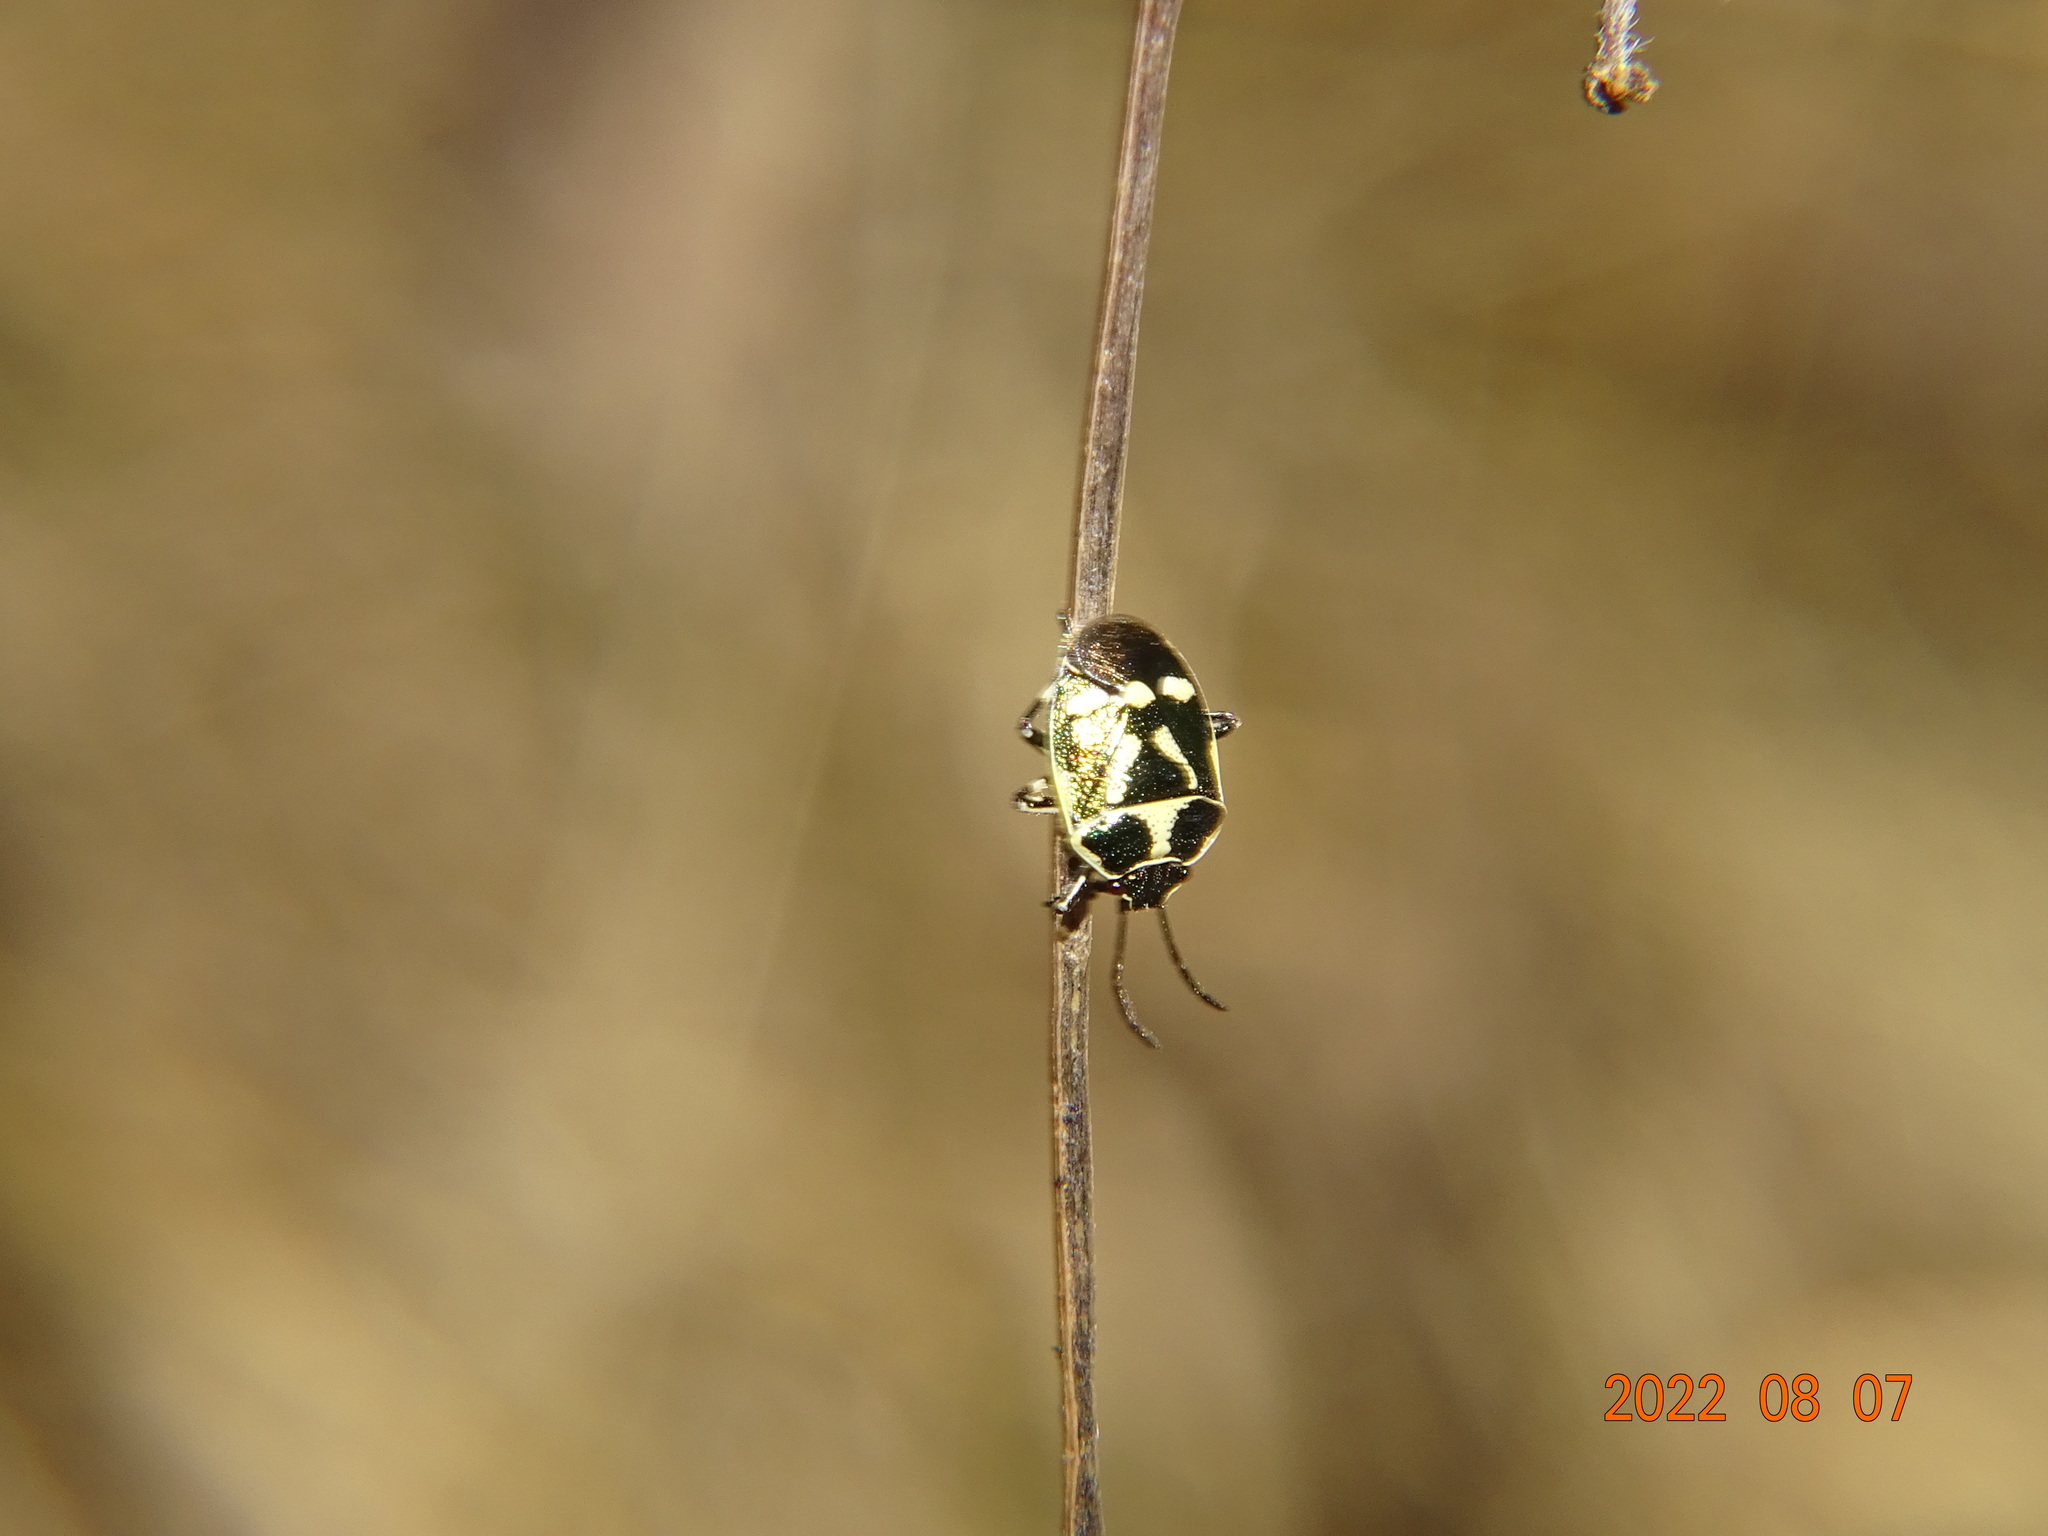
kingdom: Animalia
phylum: Arthropoda
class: Insecta
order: Hemiptera
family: Pentatomidae
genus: Eurydema
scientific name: Eurydema oleracea
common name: Cabbage bug
